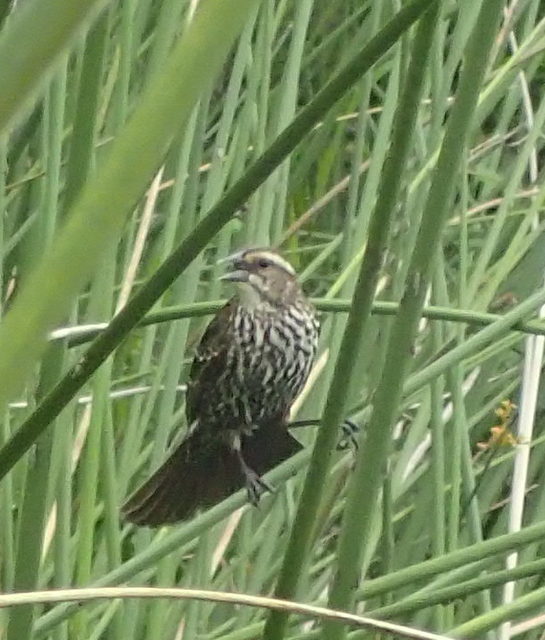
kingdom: Animalia
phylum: Chordata
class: Aves
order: Passeriformes
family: Icteridae
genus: Agelaius
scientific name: Agelaius phoeniceus
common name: Red-winged blackbird
